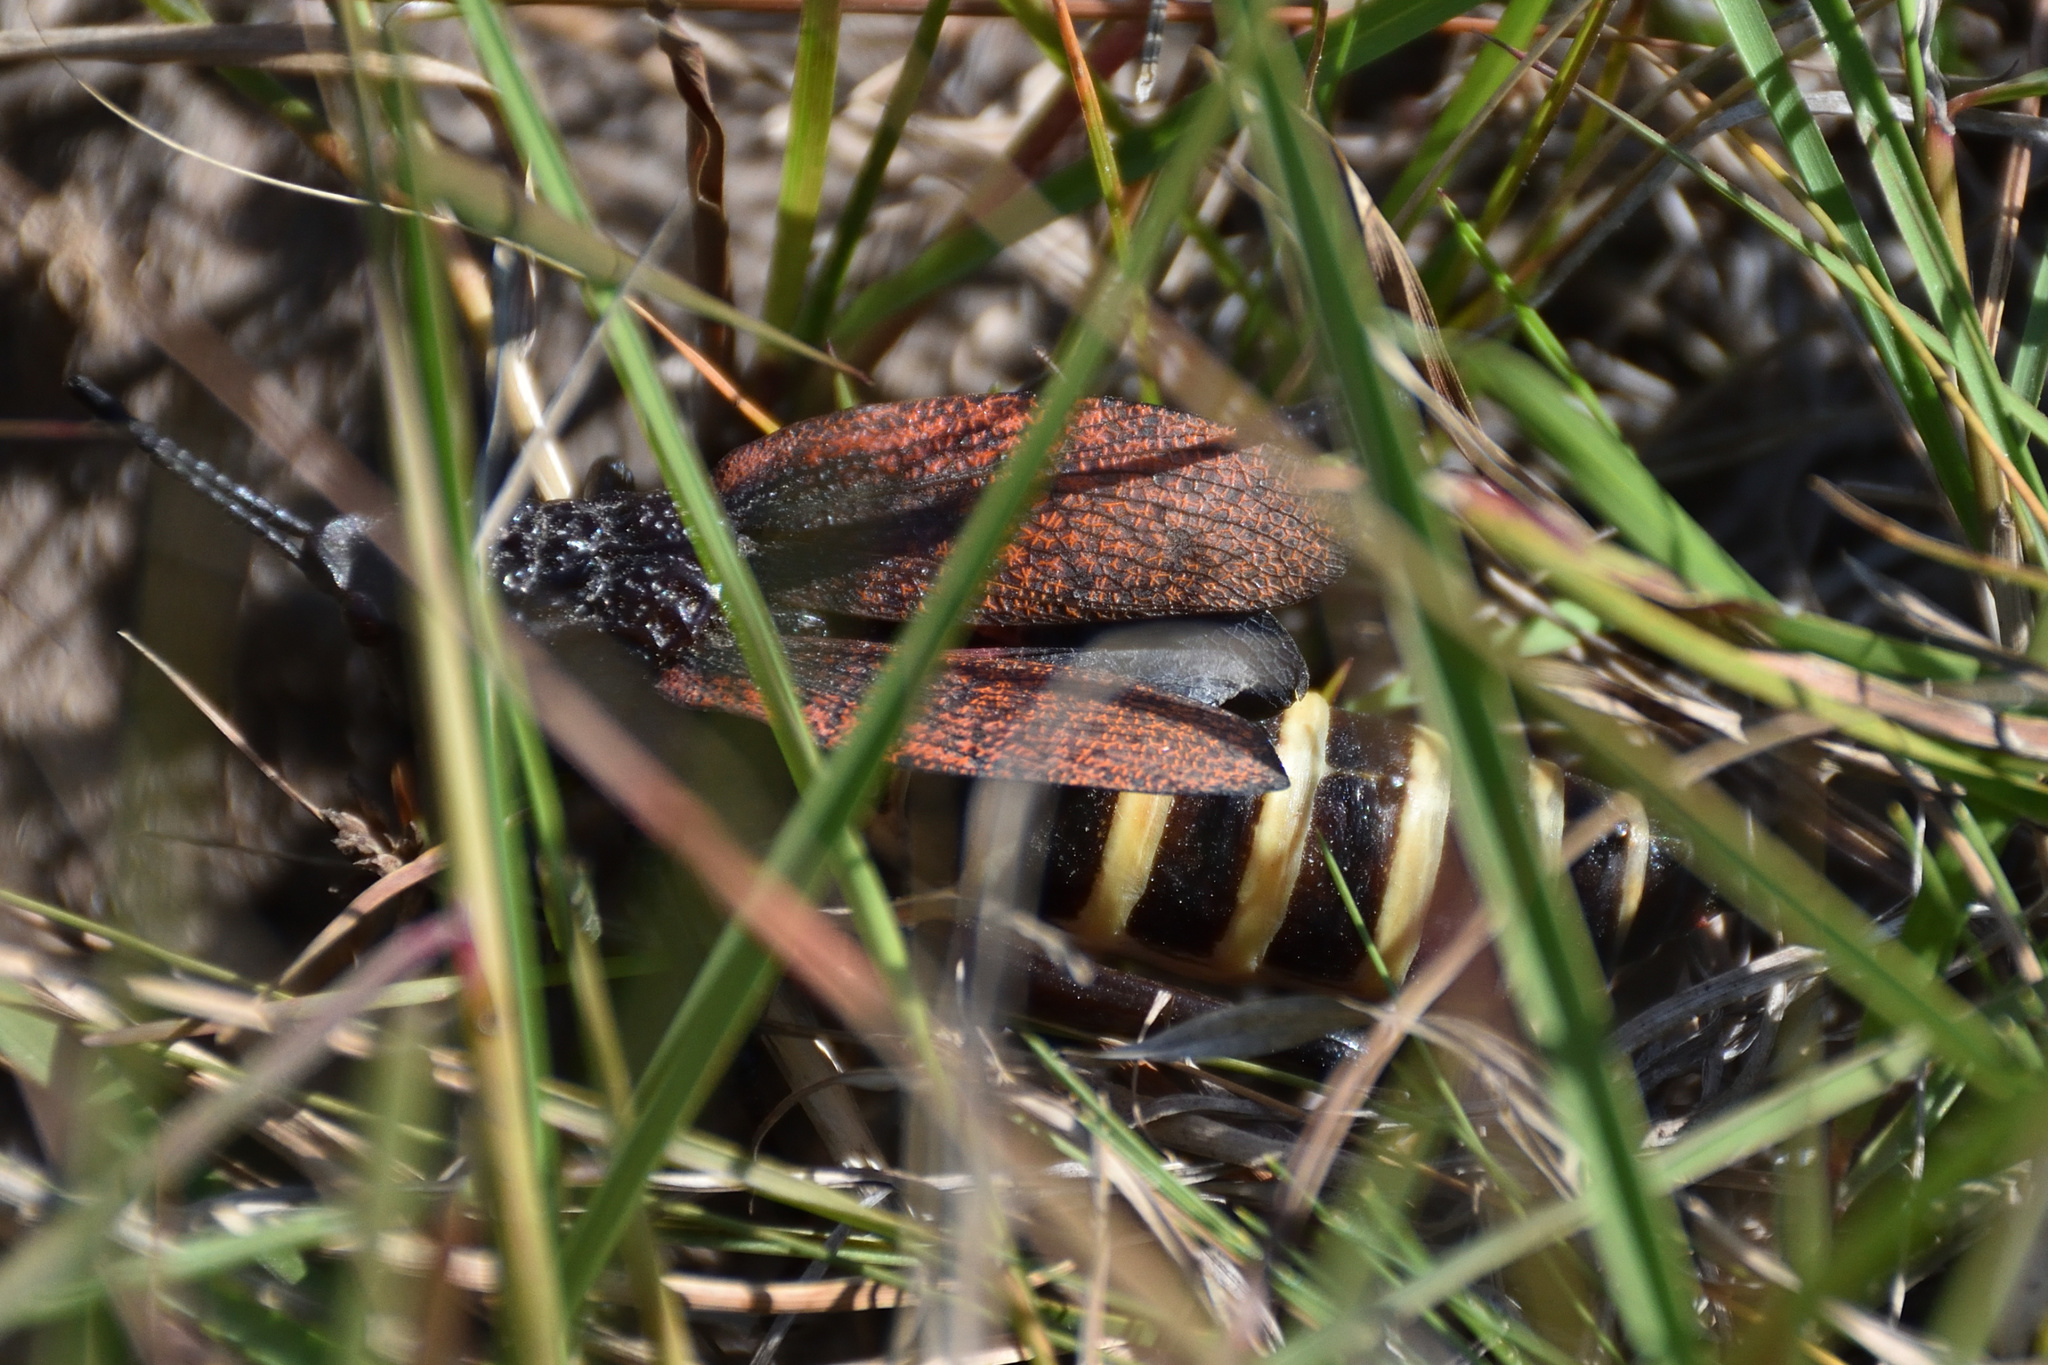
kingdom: Animalia
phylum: Arthropoda
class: Insecta
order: Orthoptera
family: Pyrgomorphidae
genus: Dictyophorus
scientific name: Dictyophorus spumans
